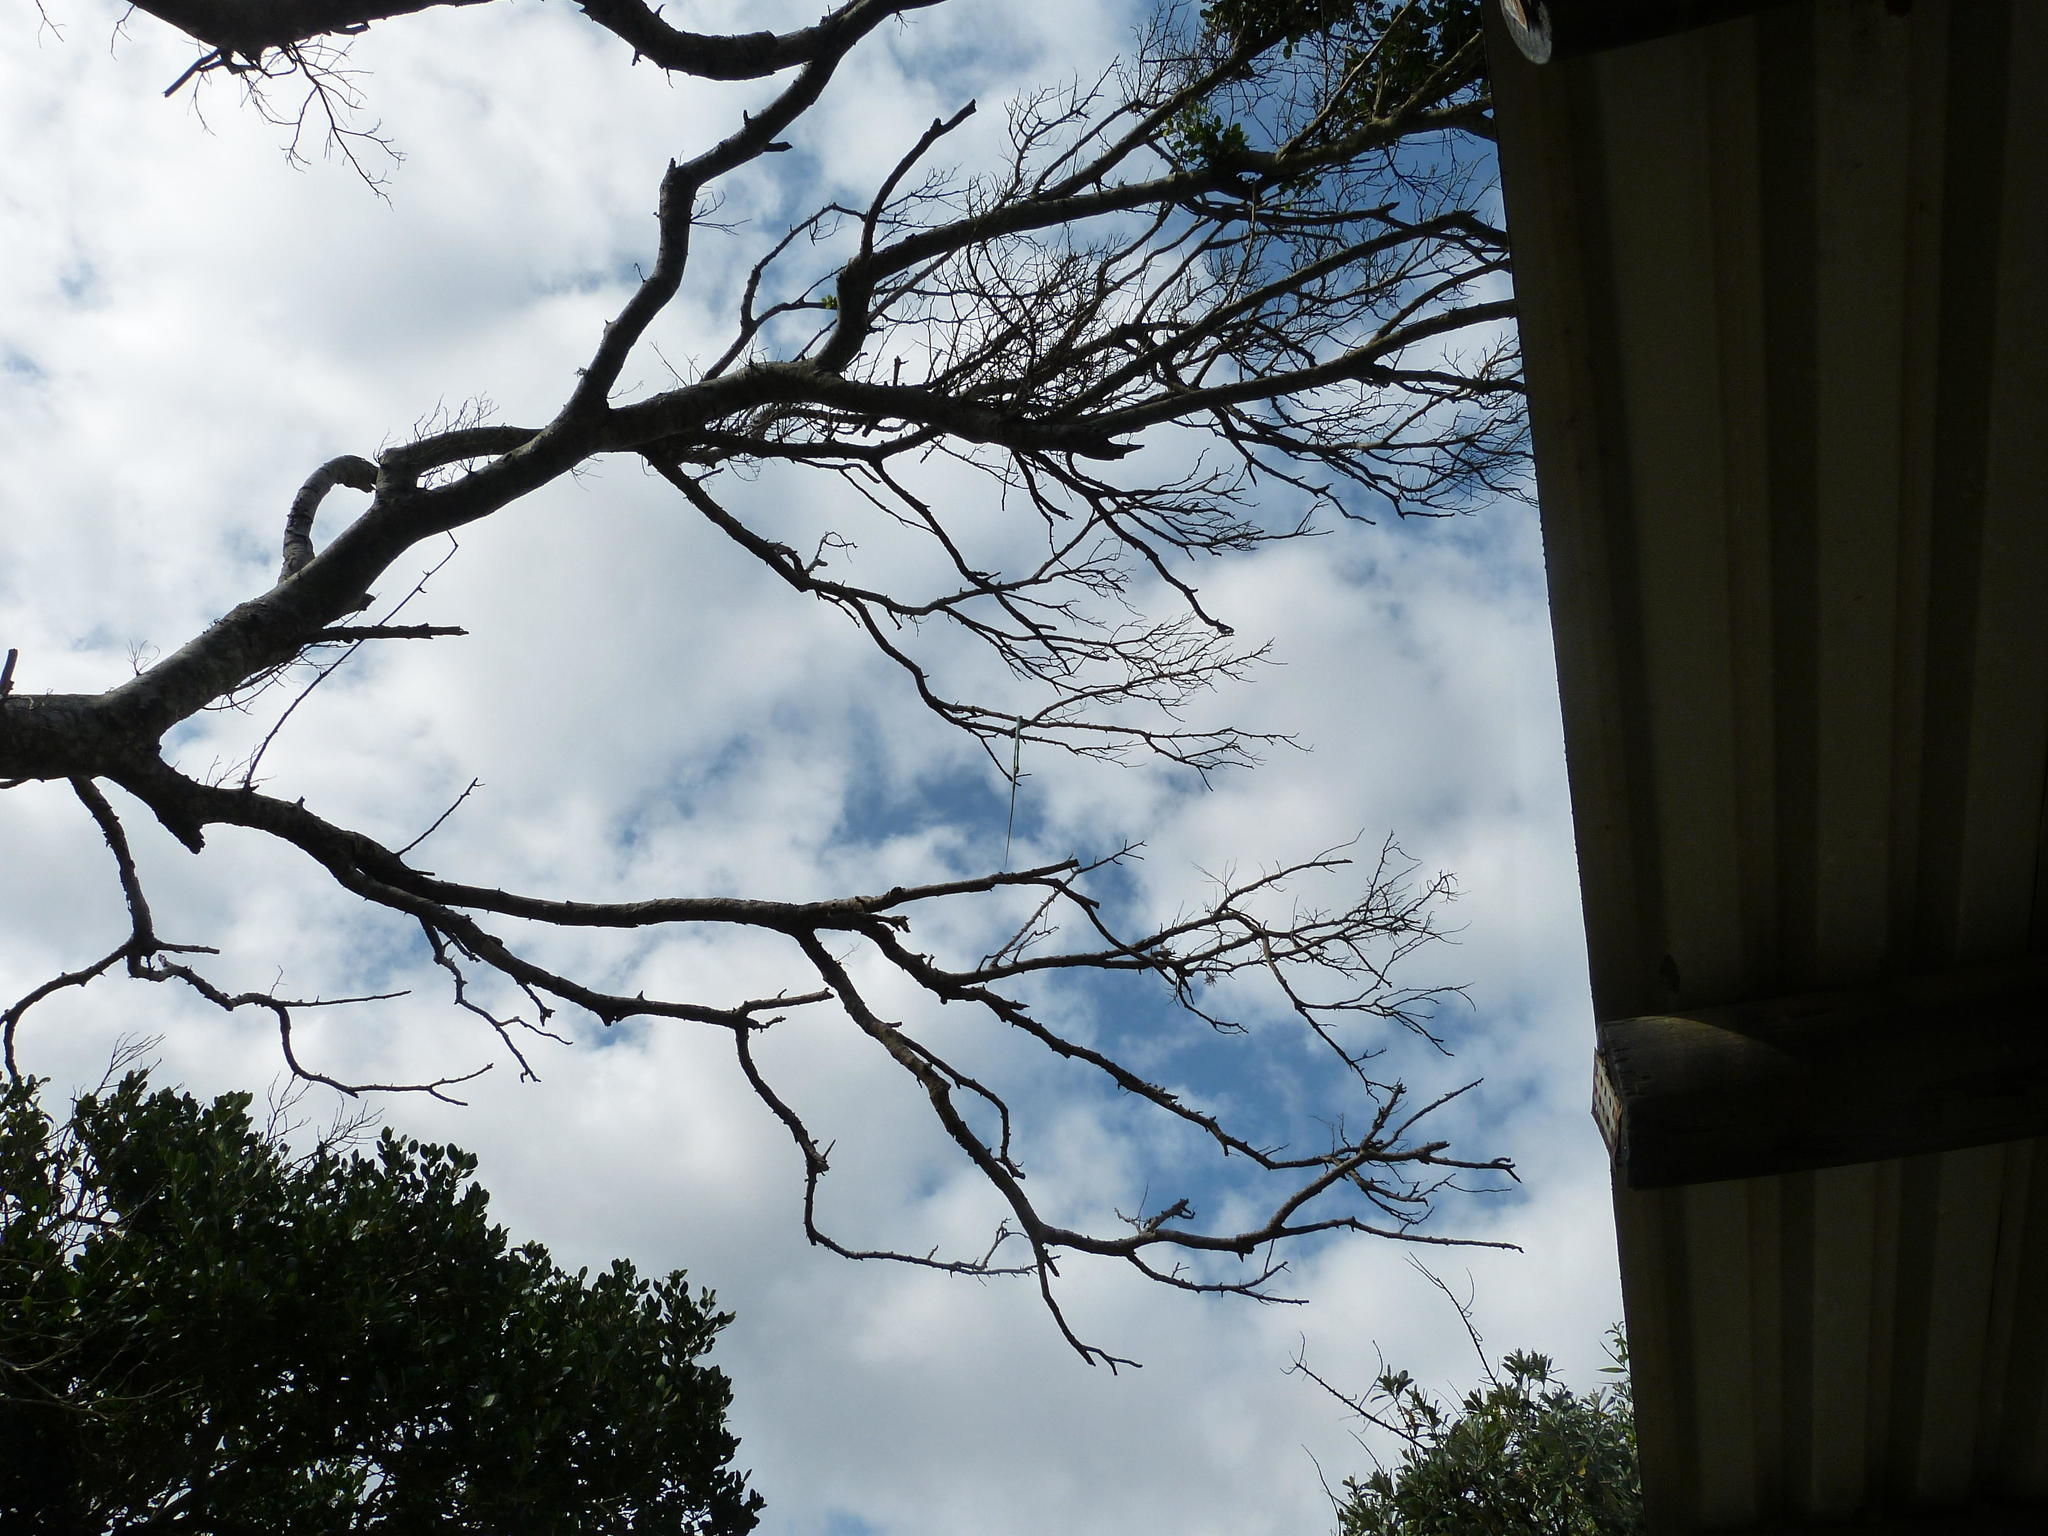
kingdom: Animalia
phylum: Chordata
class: Squamata
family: Colubridae
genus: Philothamnus
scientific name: Philothamnus natalensis
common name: Eastern natal green snake
